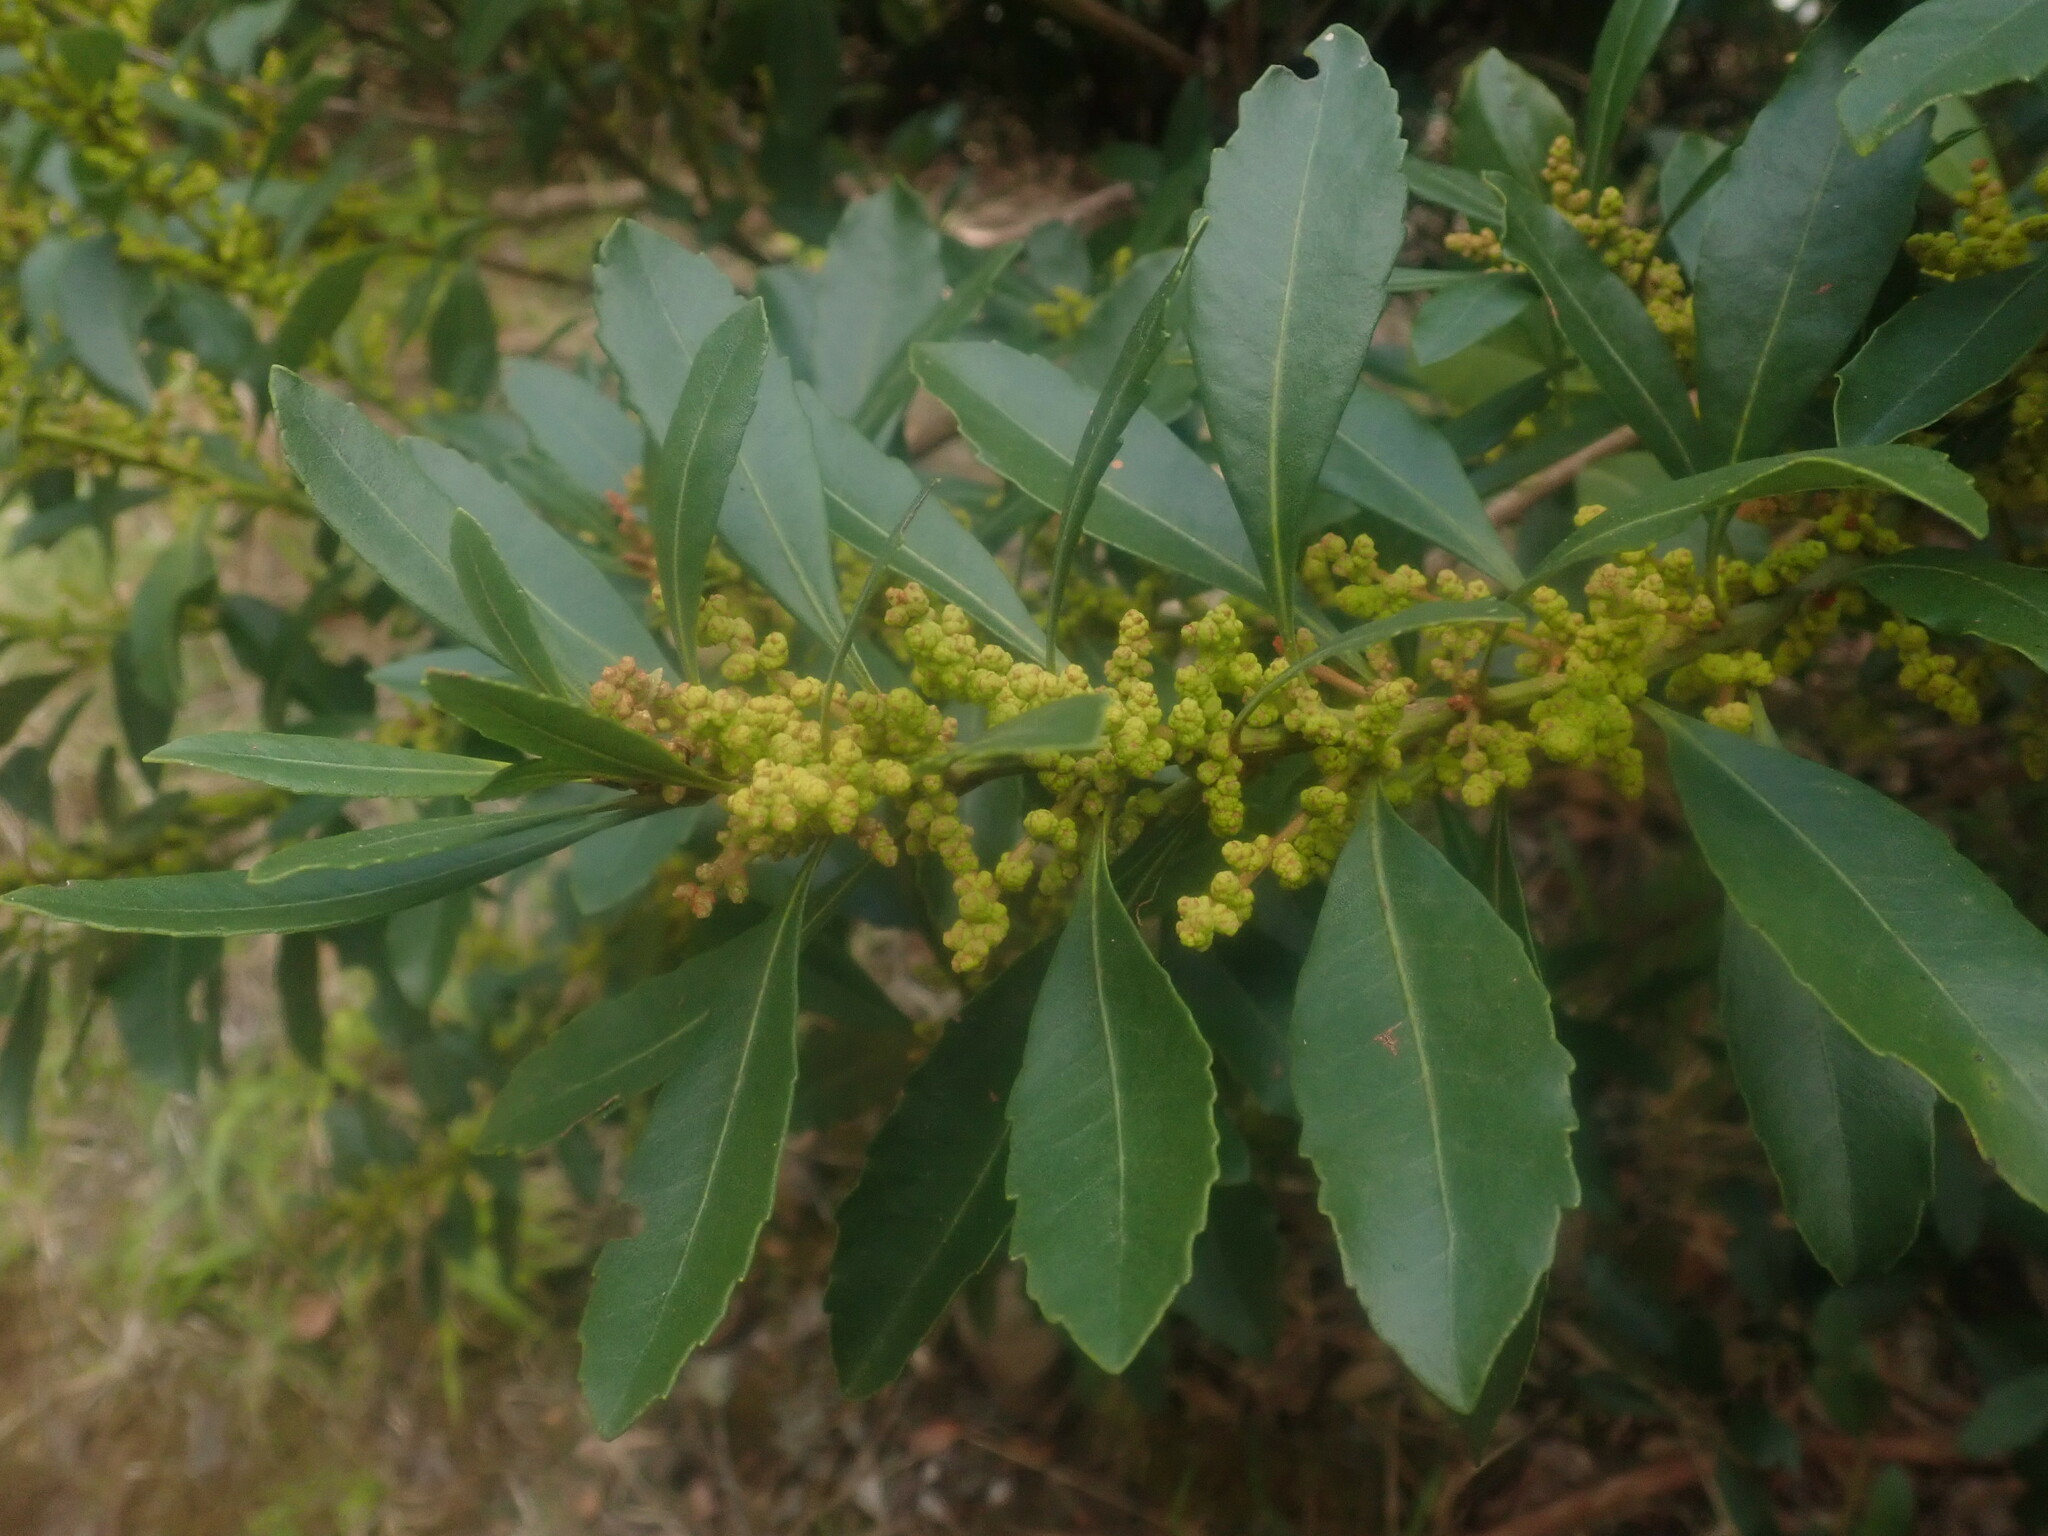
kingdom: Plantae
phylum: Tracheophyta
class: Magnoliopsida
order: Fagales
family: Myricaceae
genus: Morella
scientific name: Morella faya
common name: Firetree
